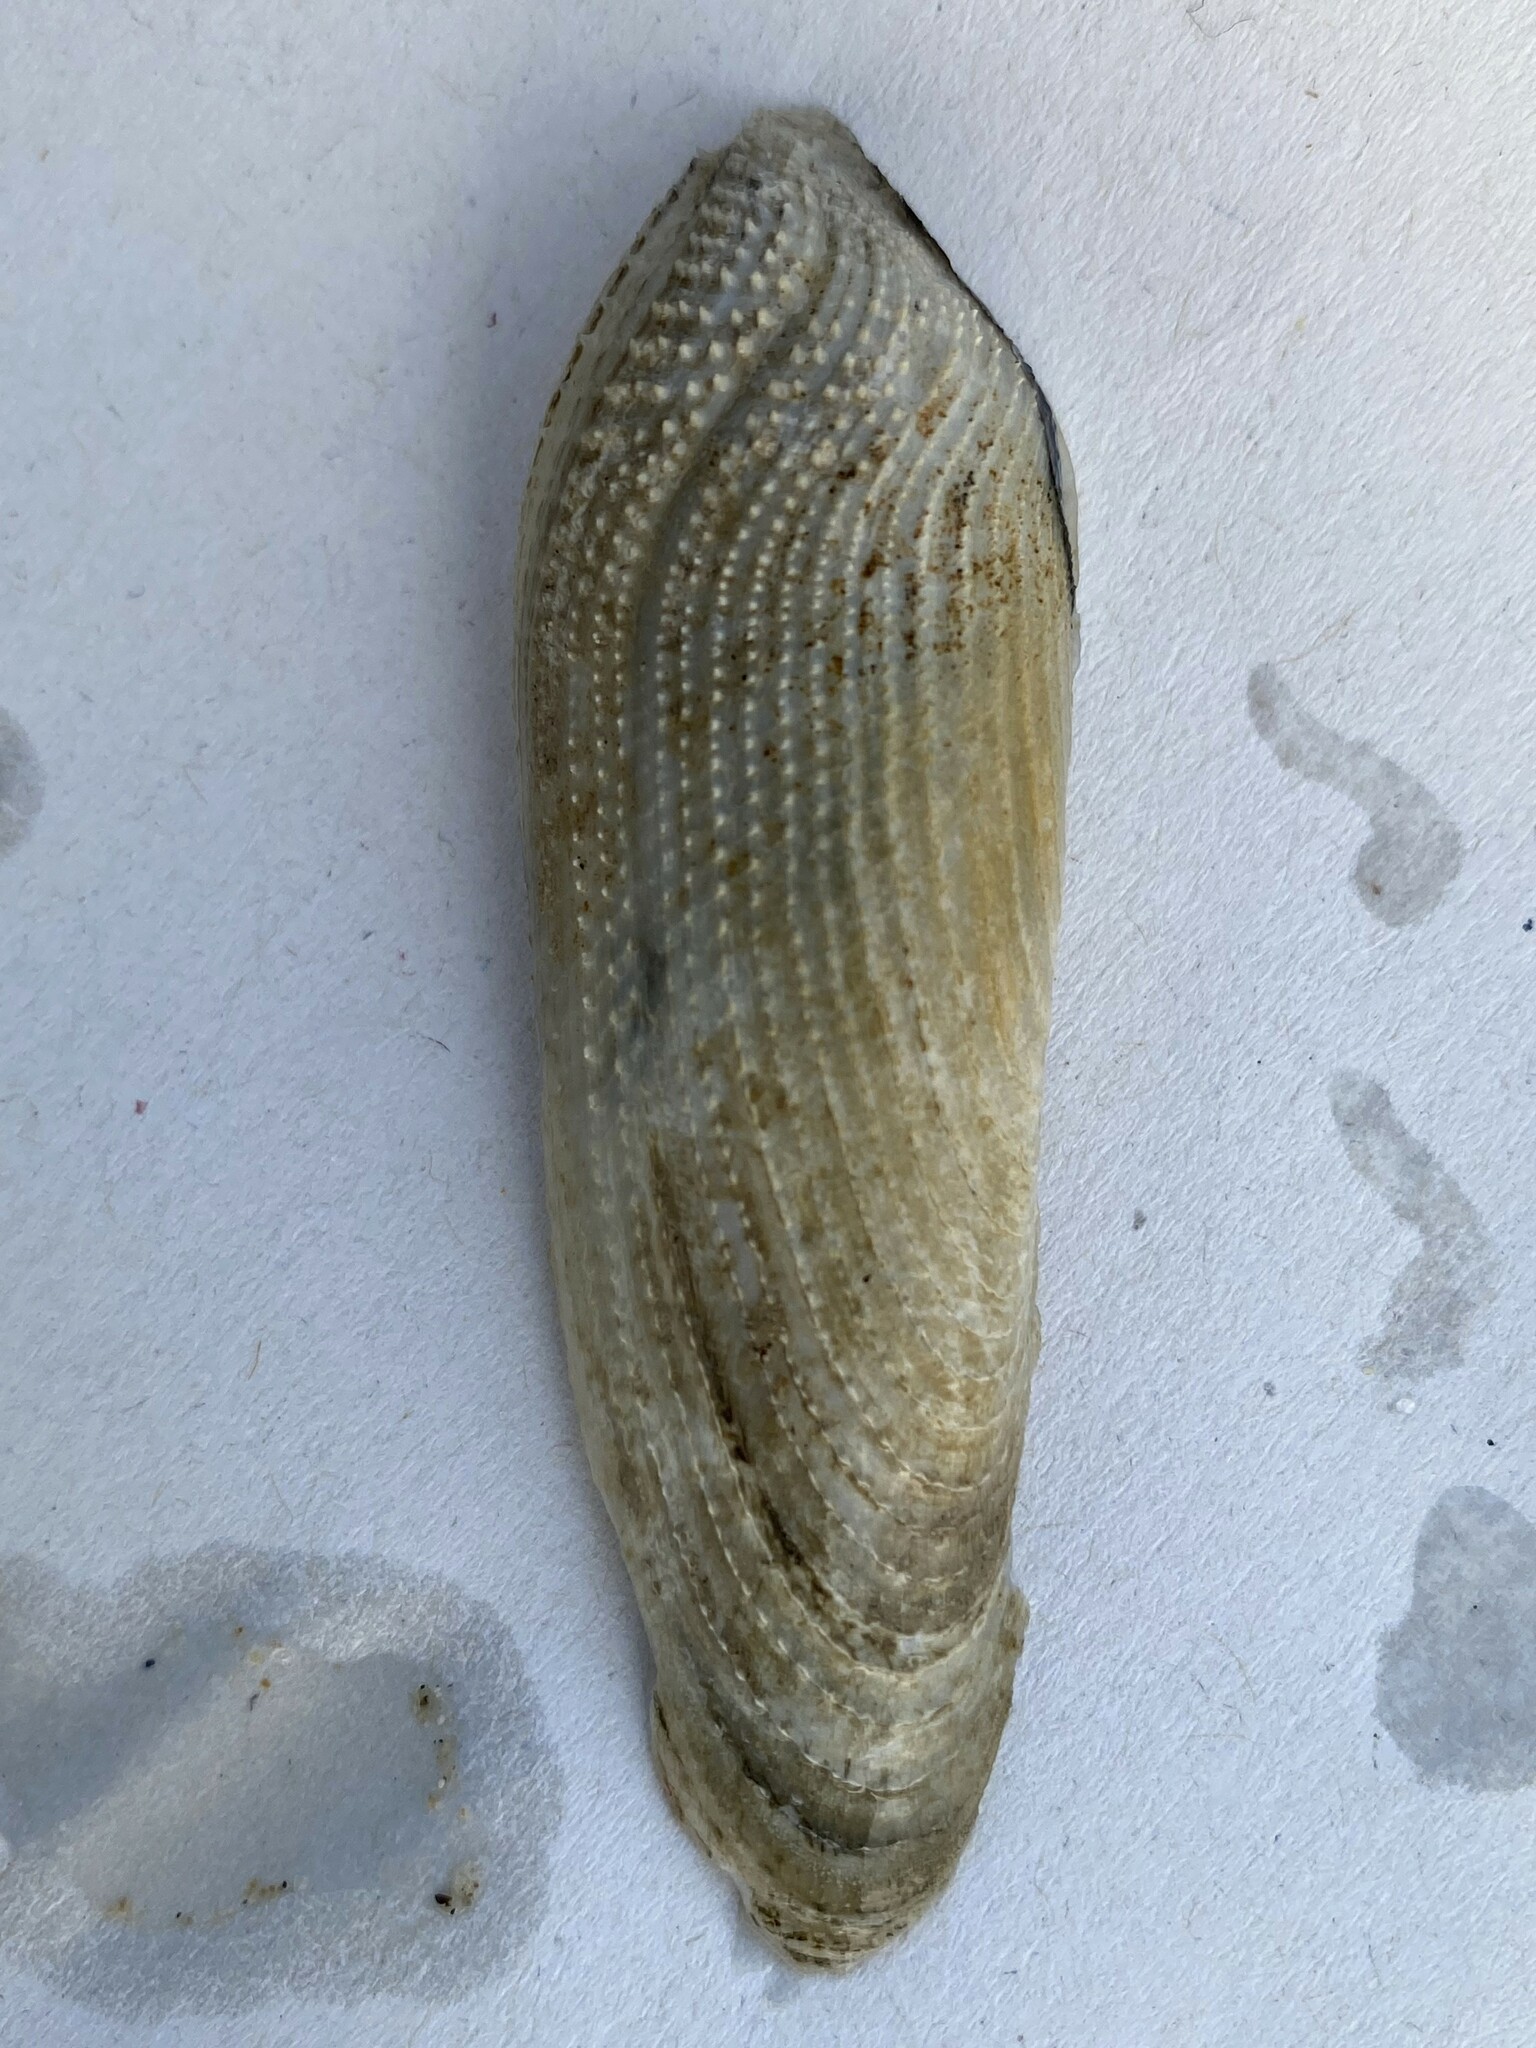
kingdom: Animalia
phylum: Mollusca
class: Bivalvia
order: Myida
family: Pholadidae
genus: Pholas
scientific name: Pholas dactylus
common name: Common piddock
